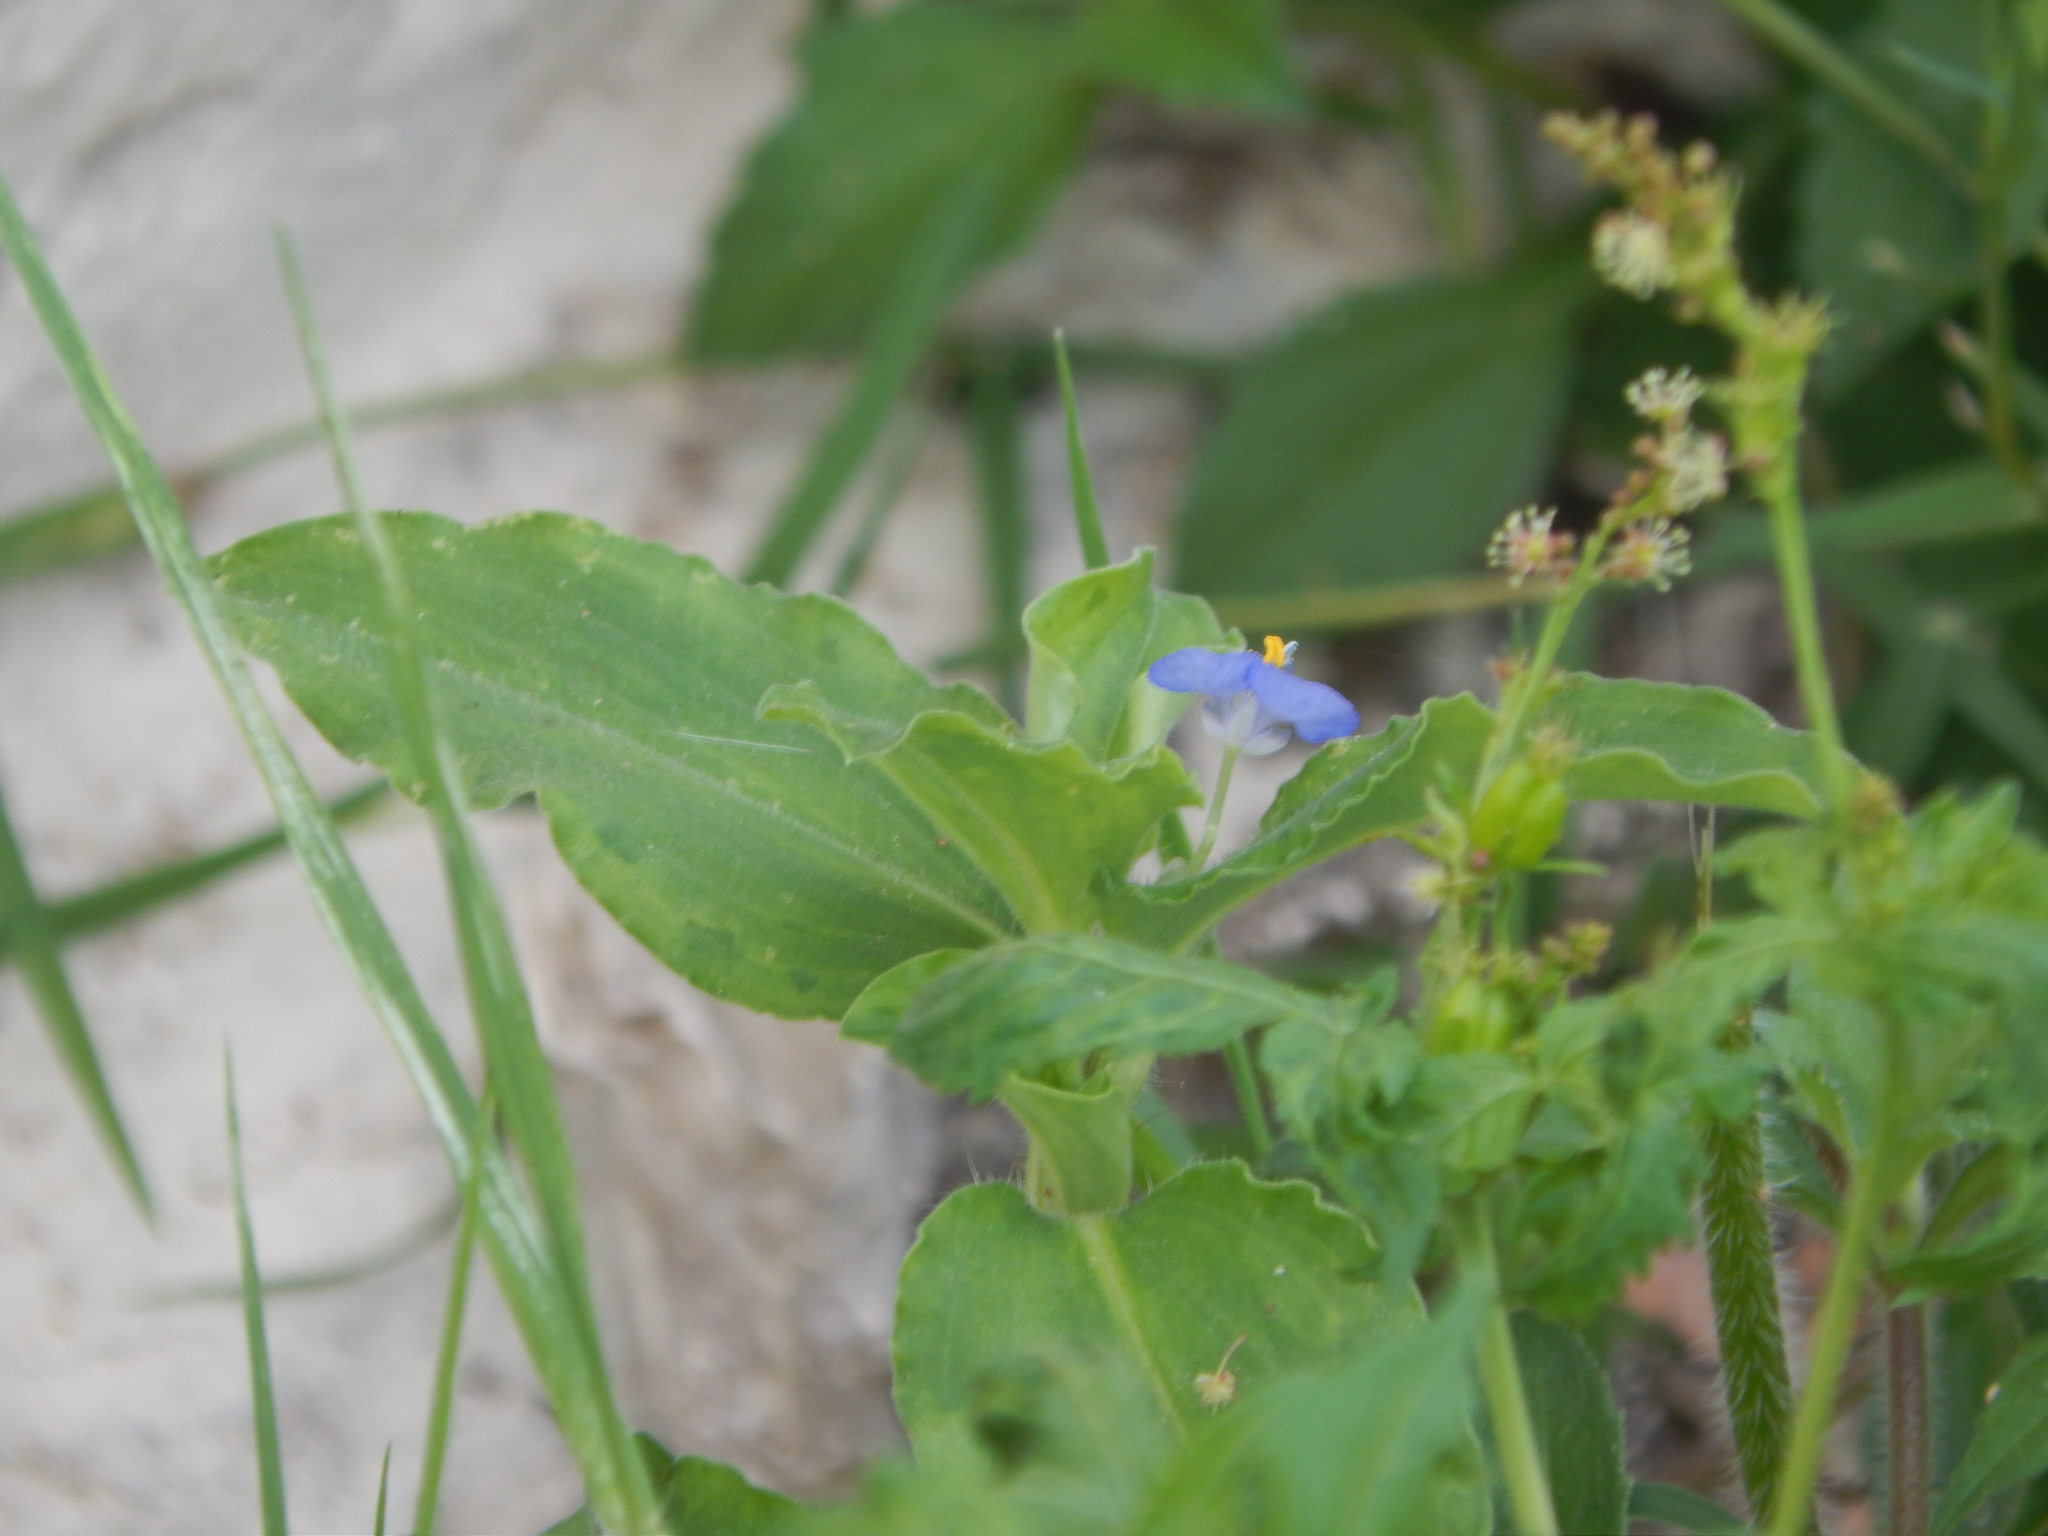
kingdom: Plantae
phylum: Tracheophyta
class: Liliopsida
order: Commelinales
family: Commelinaceae
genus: Commelina
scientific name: Commelina benghalensis
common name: Jio
